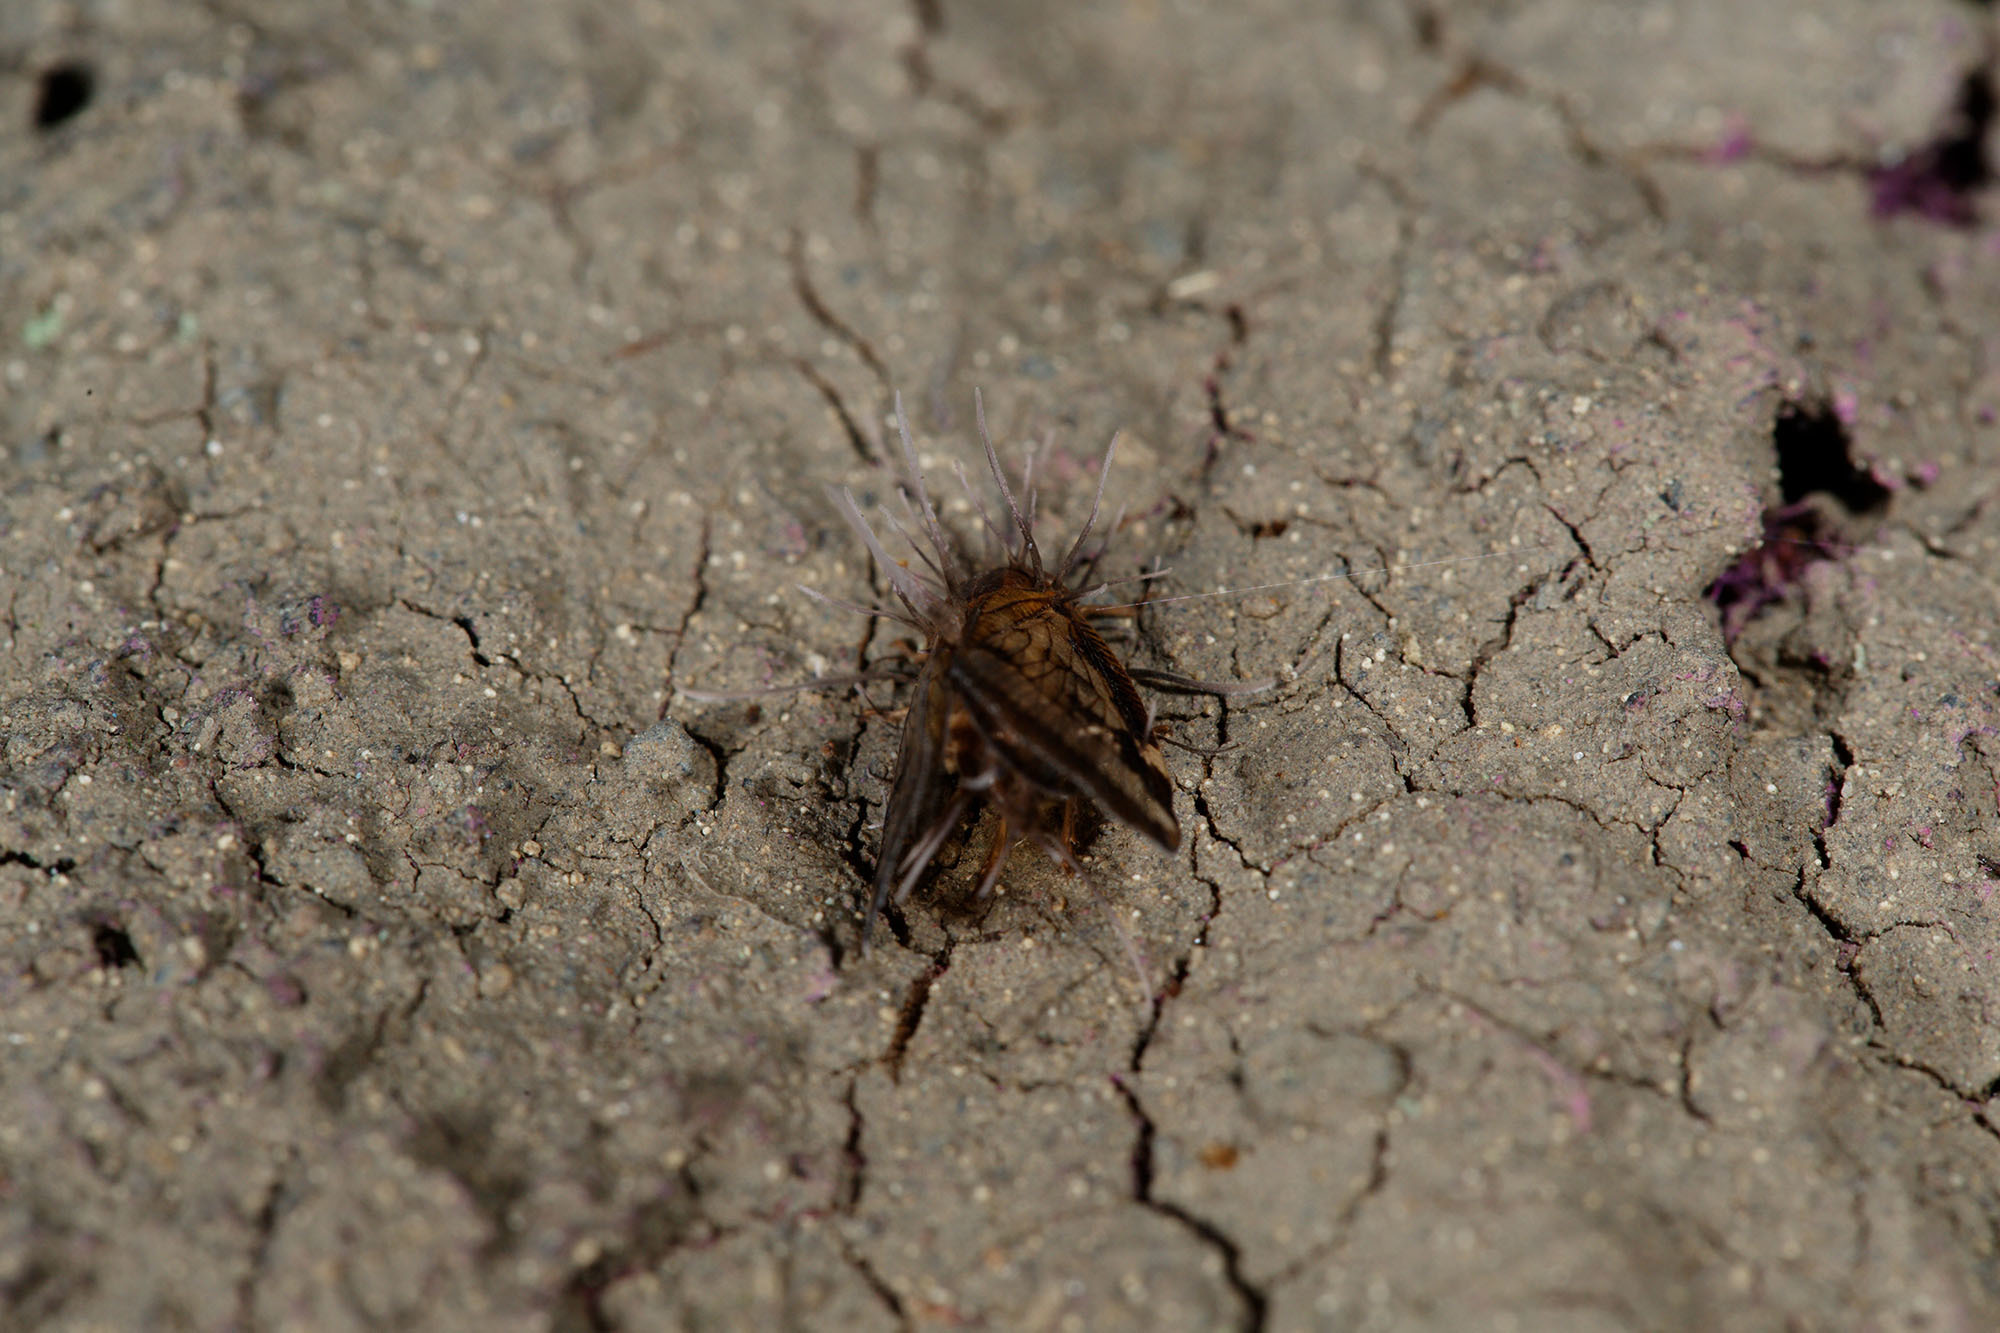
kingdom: Animalia
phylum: Arthropoda
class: Insecta
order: Hemiptera
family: Ricaniidae
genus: Scolypopa
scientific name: Scolypopa australis
